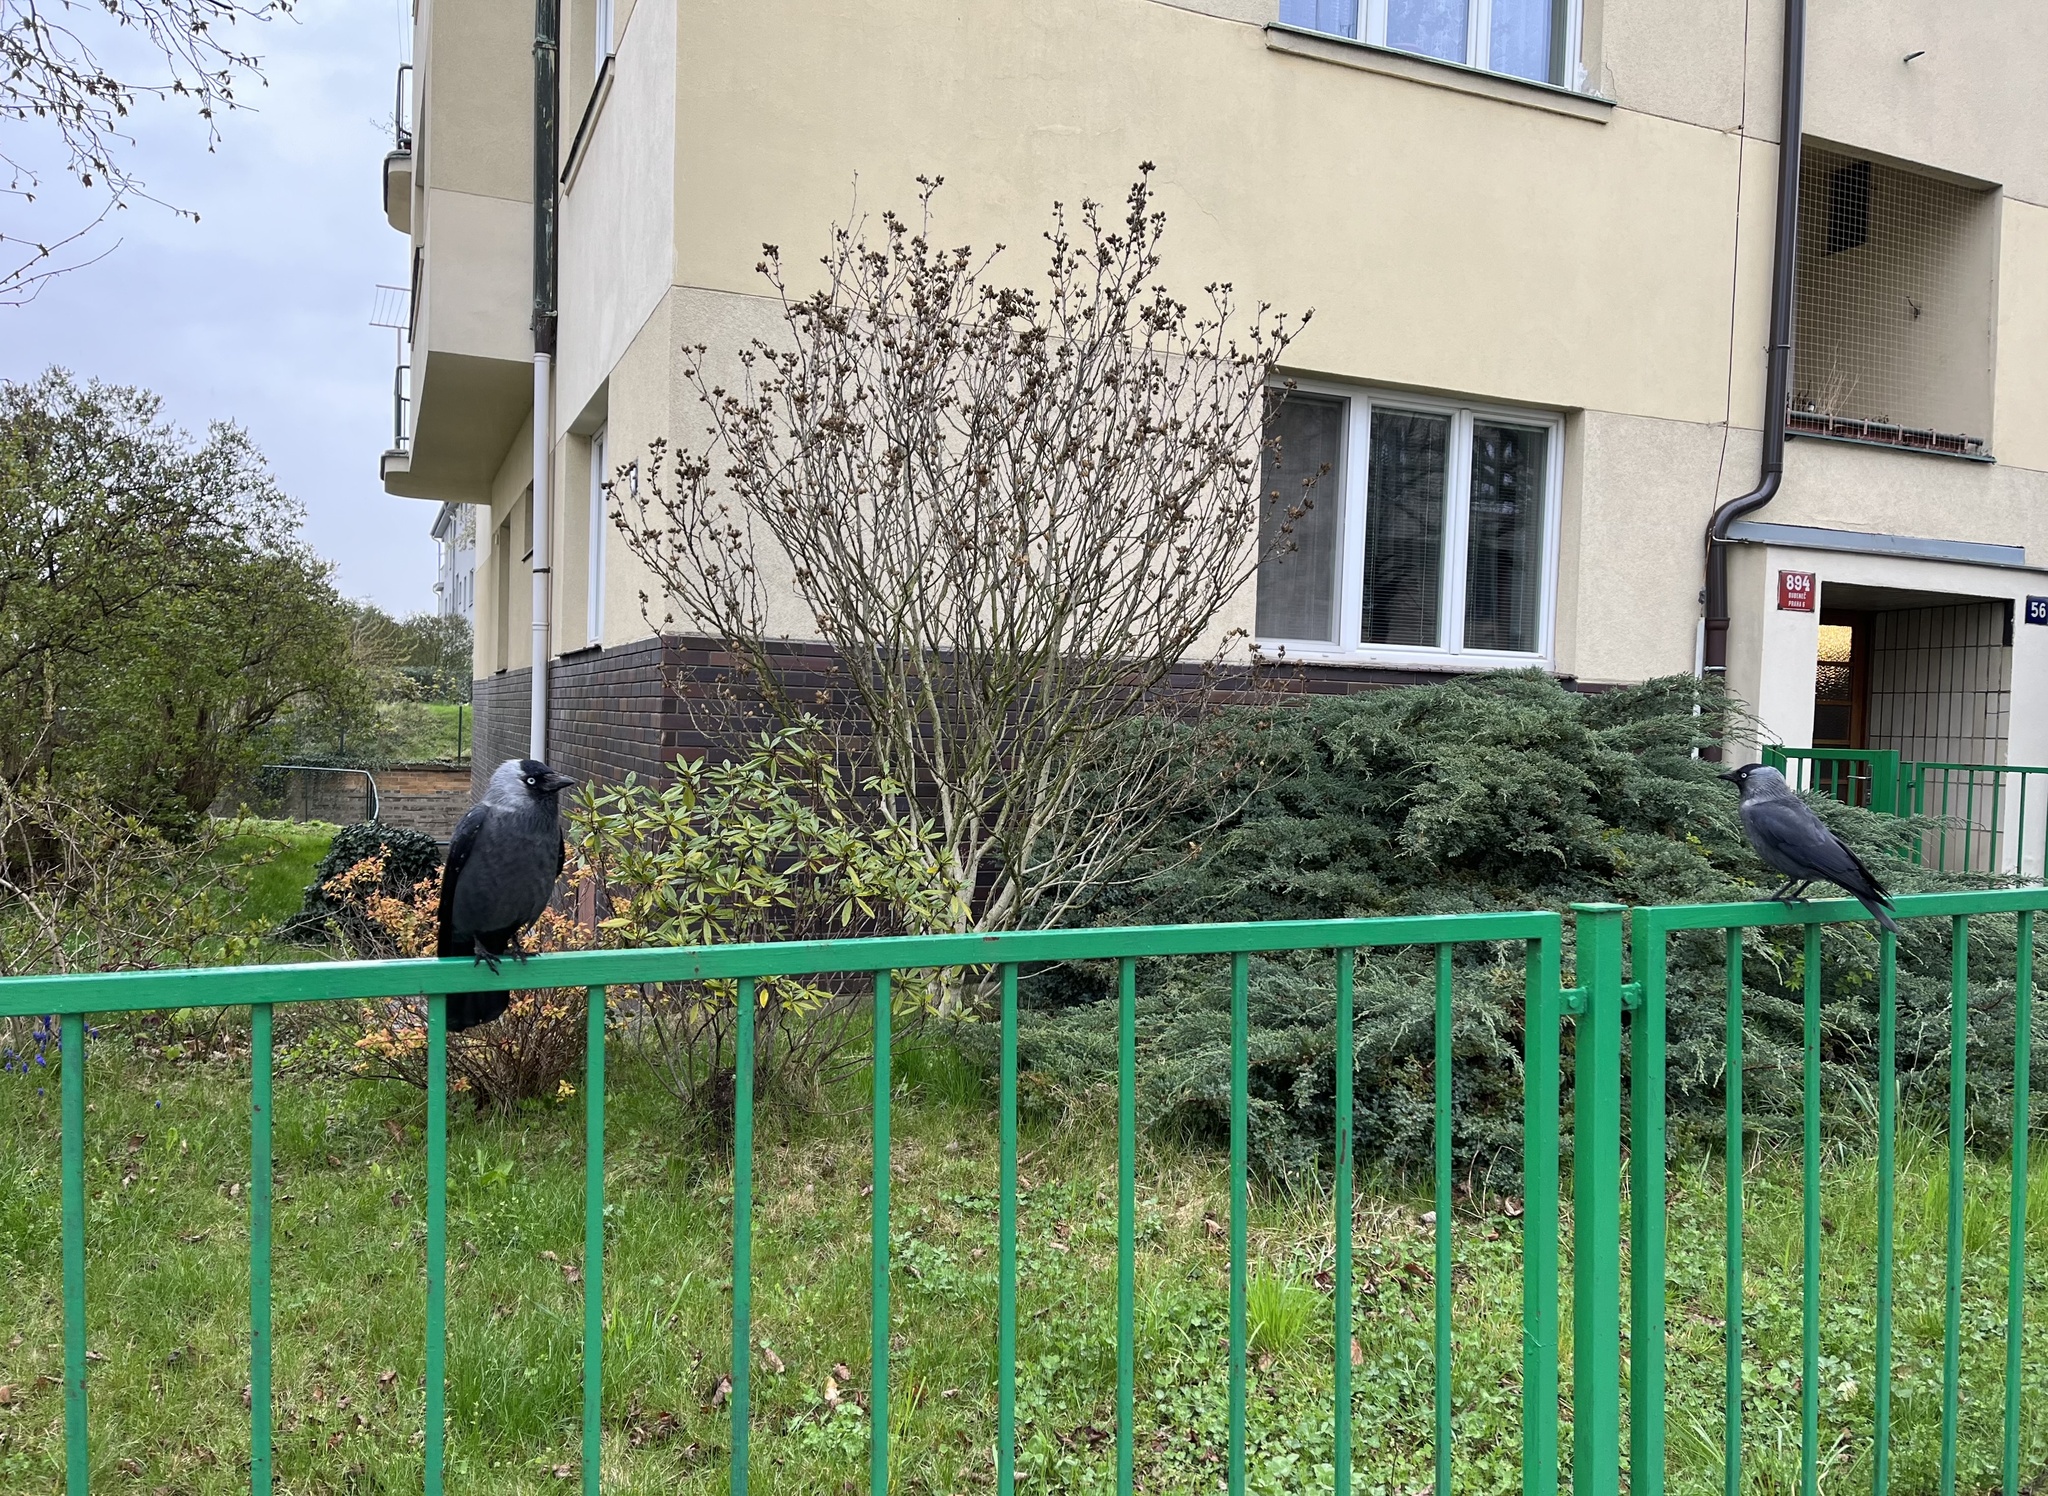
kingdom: Animalia
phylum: Chordata
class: Aves
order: Passeriformes
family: Corvidae
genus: Coloeus
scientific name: Coloeus monedula
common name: Western jackdaw
